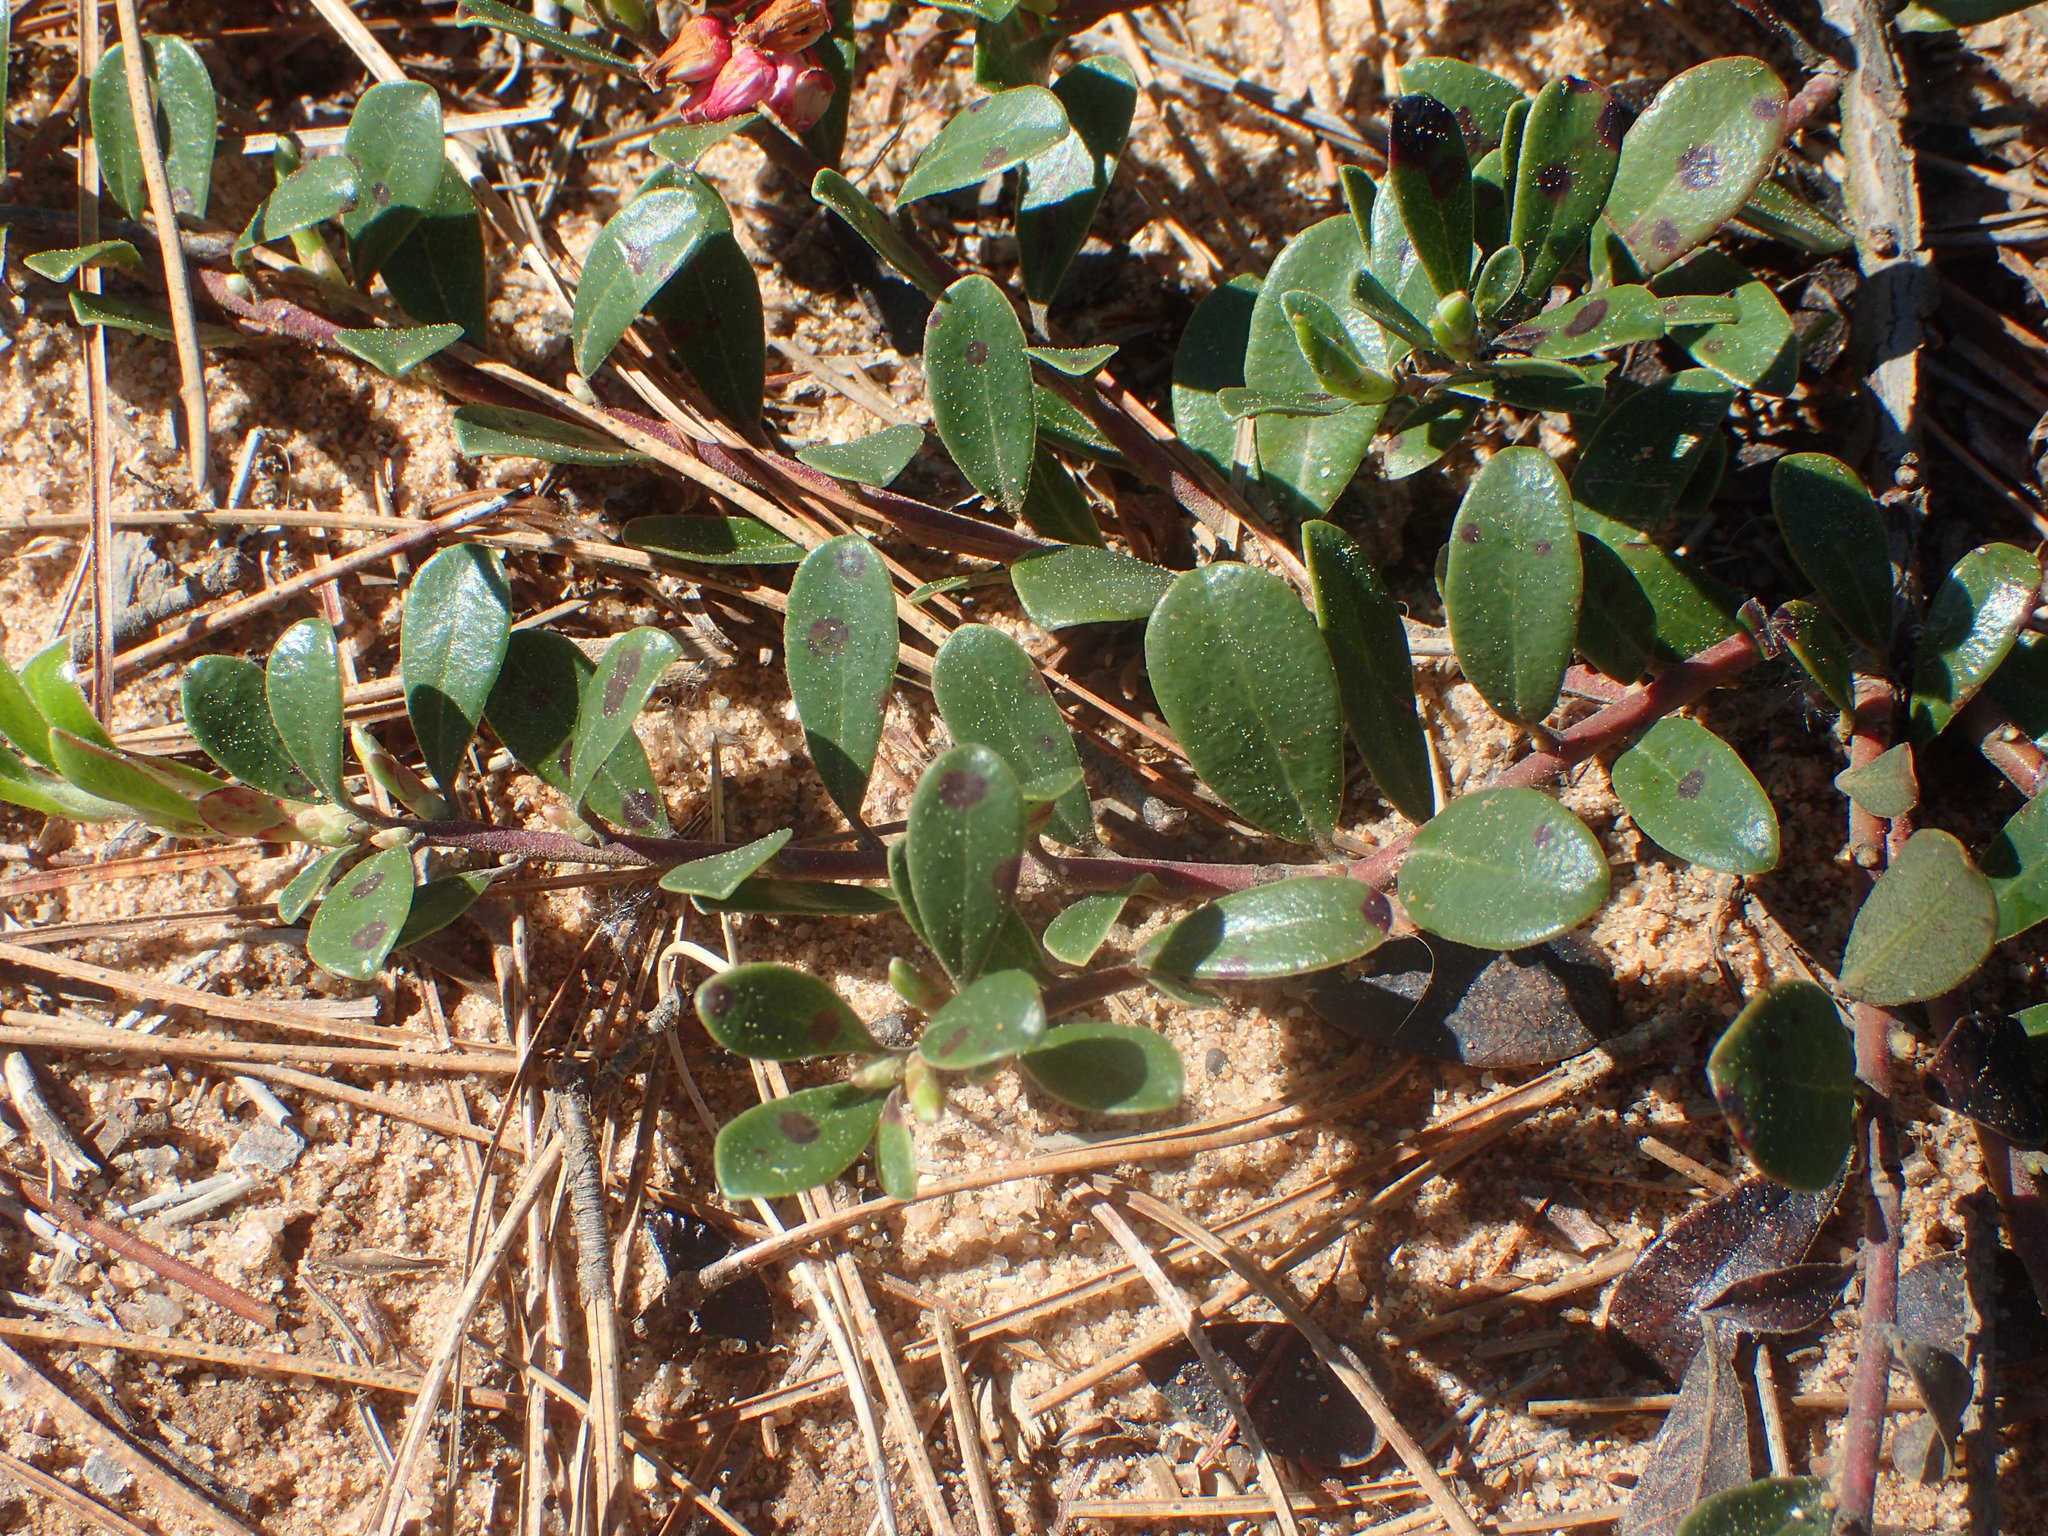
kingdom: Plantae
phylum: Tracheophyta
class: Magnoliopsida
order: Ericales
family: Ericaceae
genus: Arctostaphylos
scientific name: Arctostaphylos uva-ursi
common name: Bearberry
